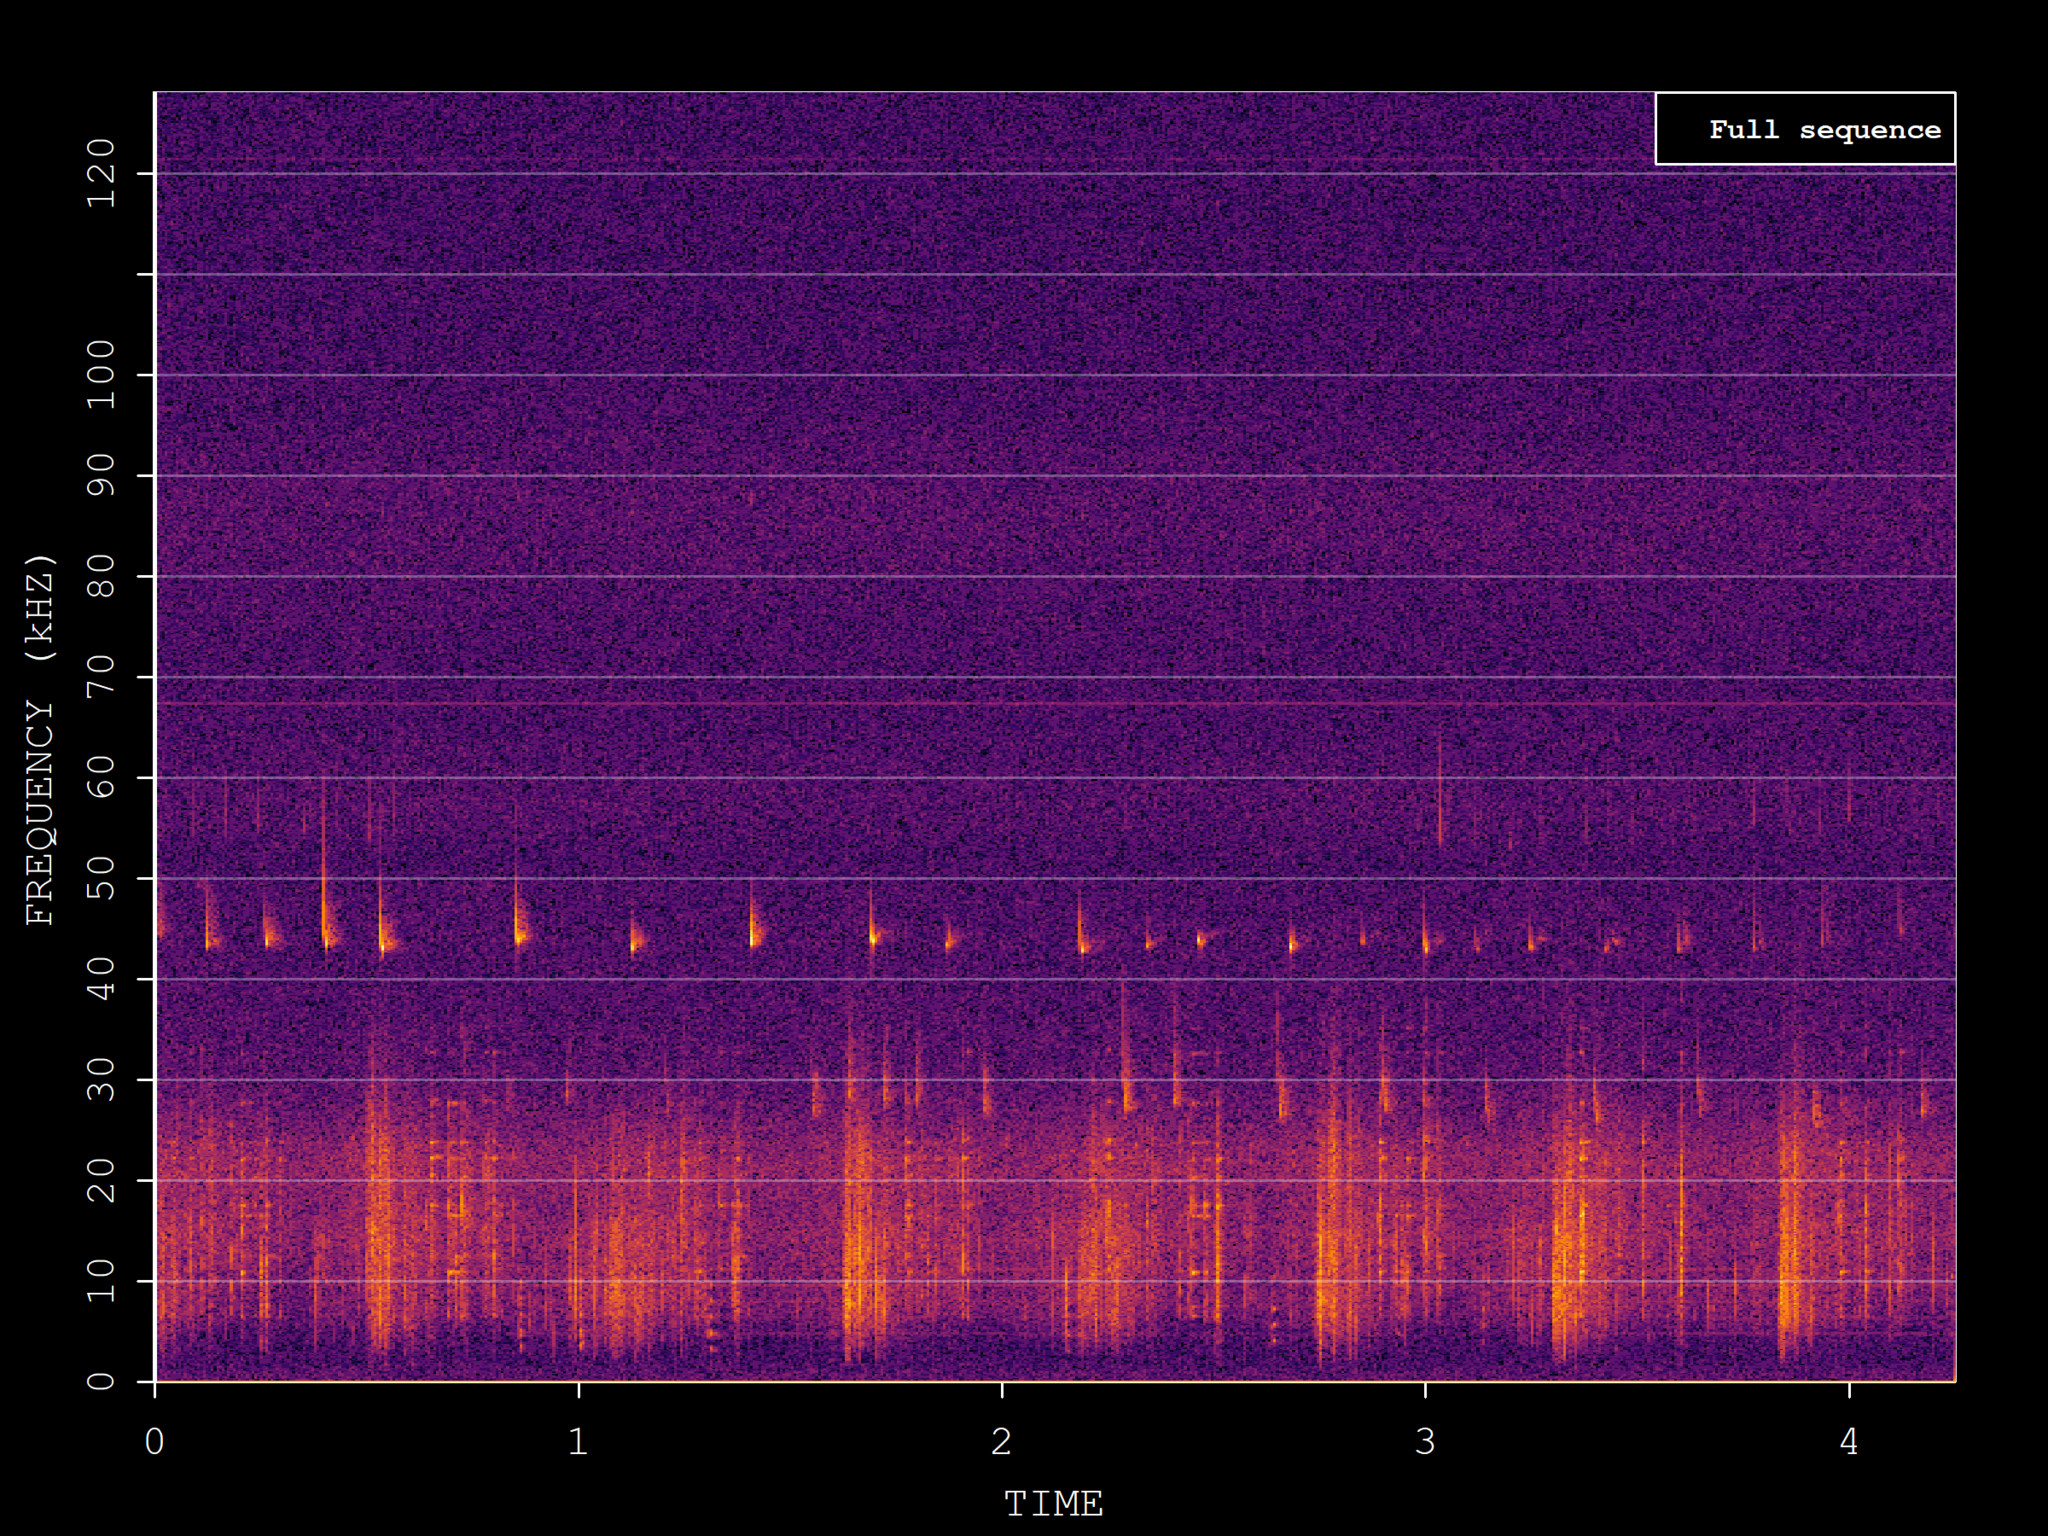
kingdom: Animalia
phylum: Chordata
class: Mammalia
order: Chiroptera
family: Vespertilionidae
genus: Pipistrellus
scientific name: Pipistrellus pipistrellus
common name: Common pipistrelle
